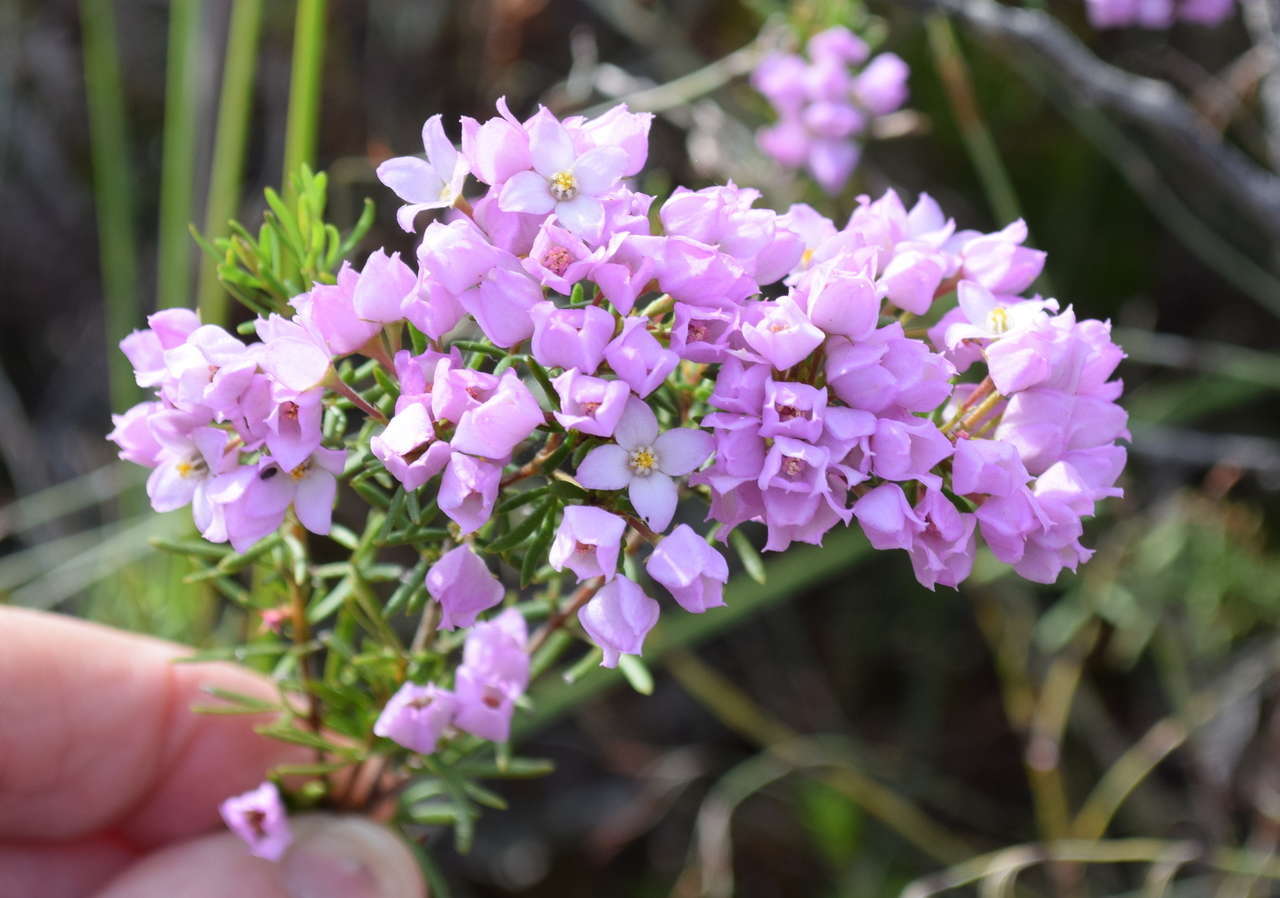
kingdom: Plantae
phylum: Tracheophyta
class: Magnoliopsida
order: Sapindales
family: Rutaceae
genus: Boronia
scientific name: Boronia pilosa
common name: Hairy boronia
